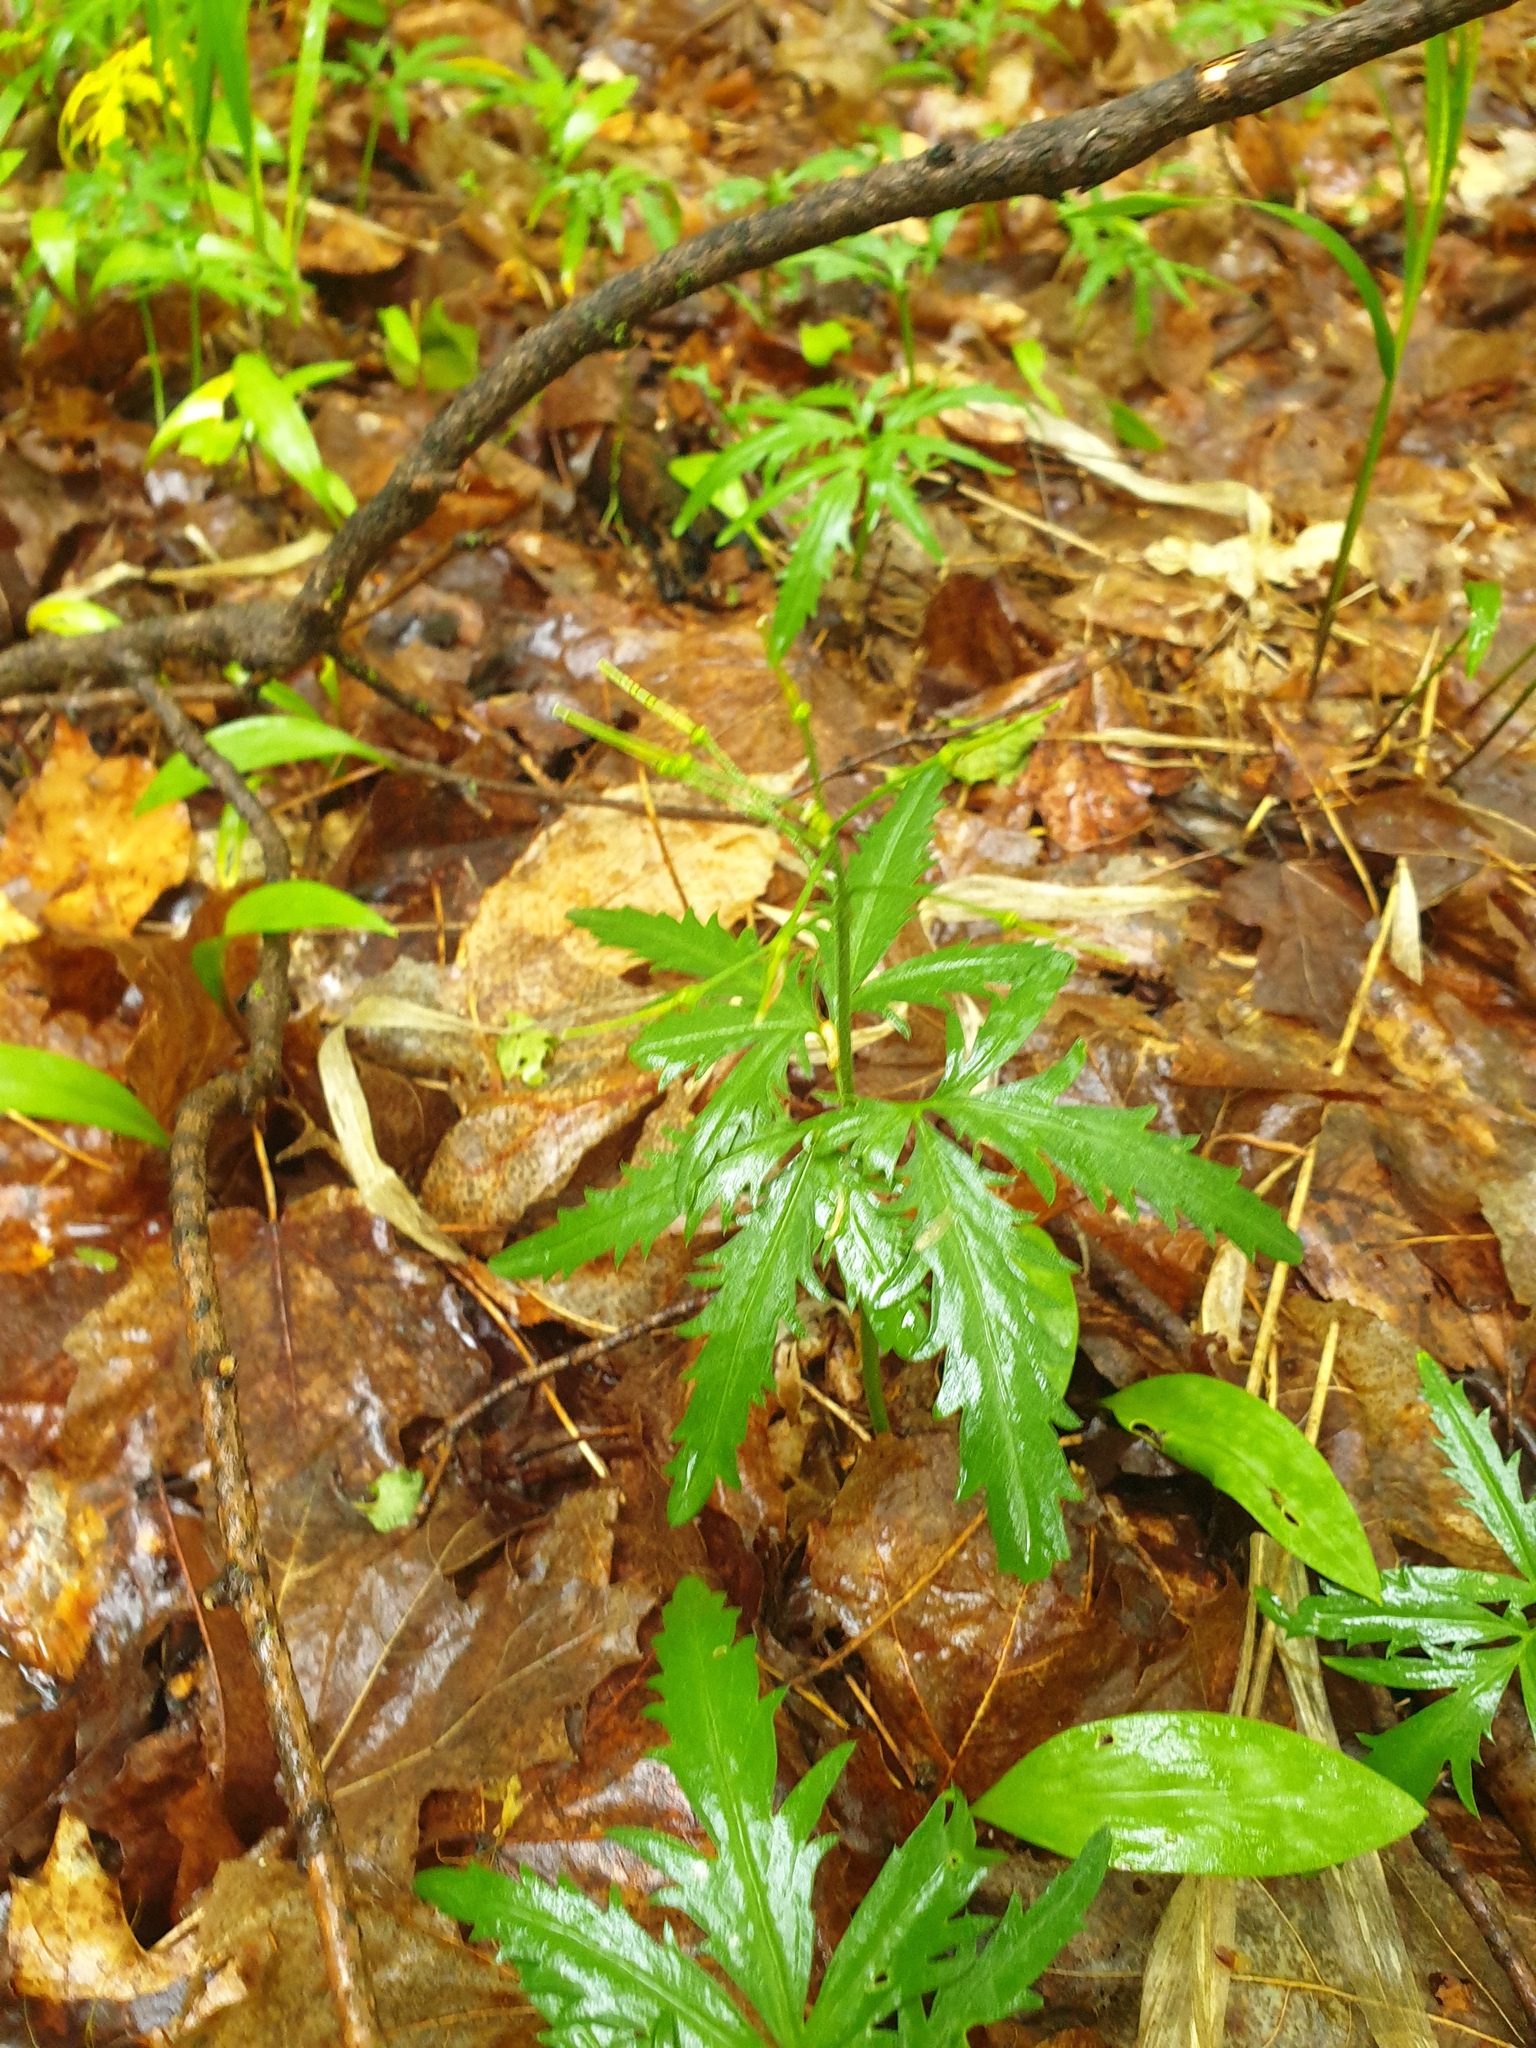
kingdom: Plantae
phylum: Tracheophyta
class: Magnoliopsida
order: Brassicales
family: Brassicaceae
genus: Cardamine
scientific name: Cardamine concatenata
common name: Cut-leaf toothcup
